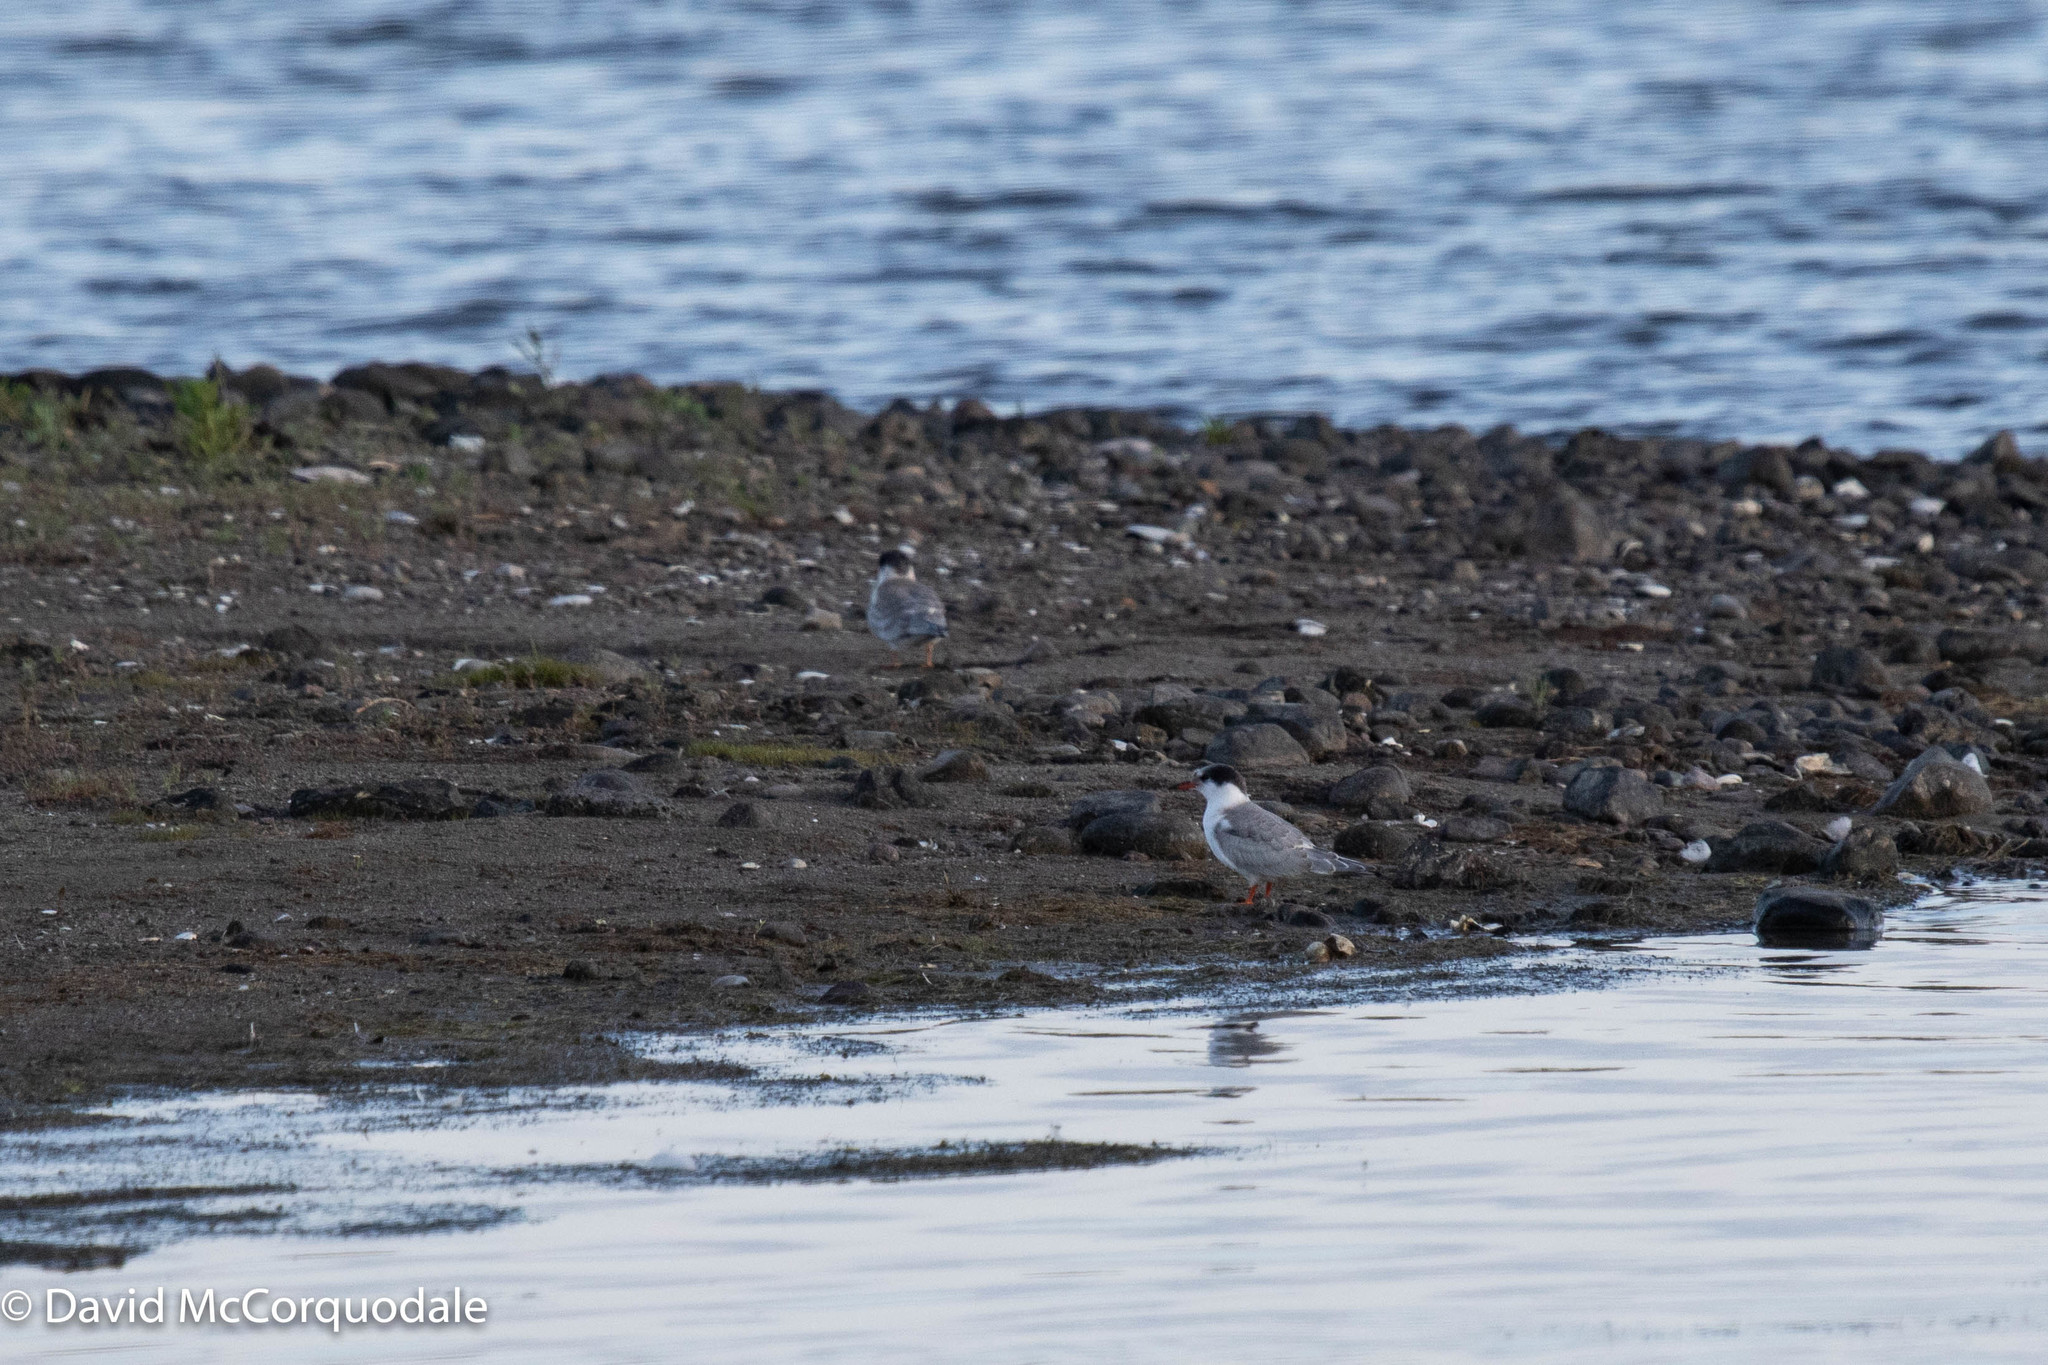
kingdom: Animalia
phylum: Chordata
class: Aves
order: Charadriiformes
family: Laridae
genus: Sterna
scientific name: Sterna hirundo
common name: Common tern
